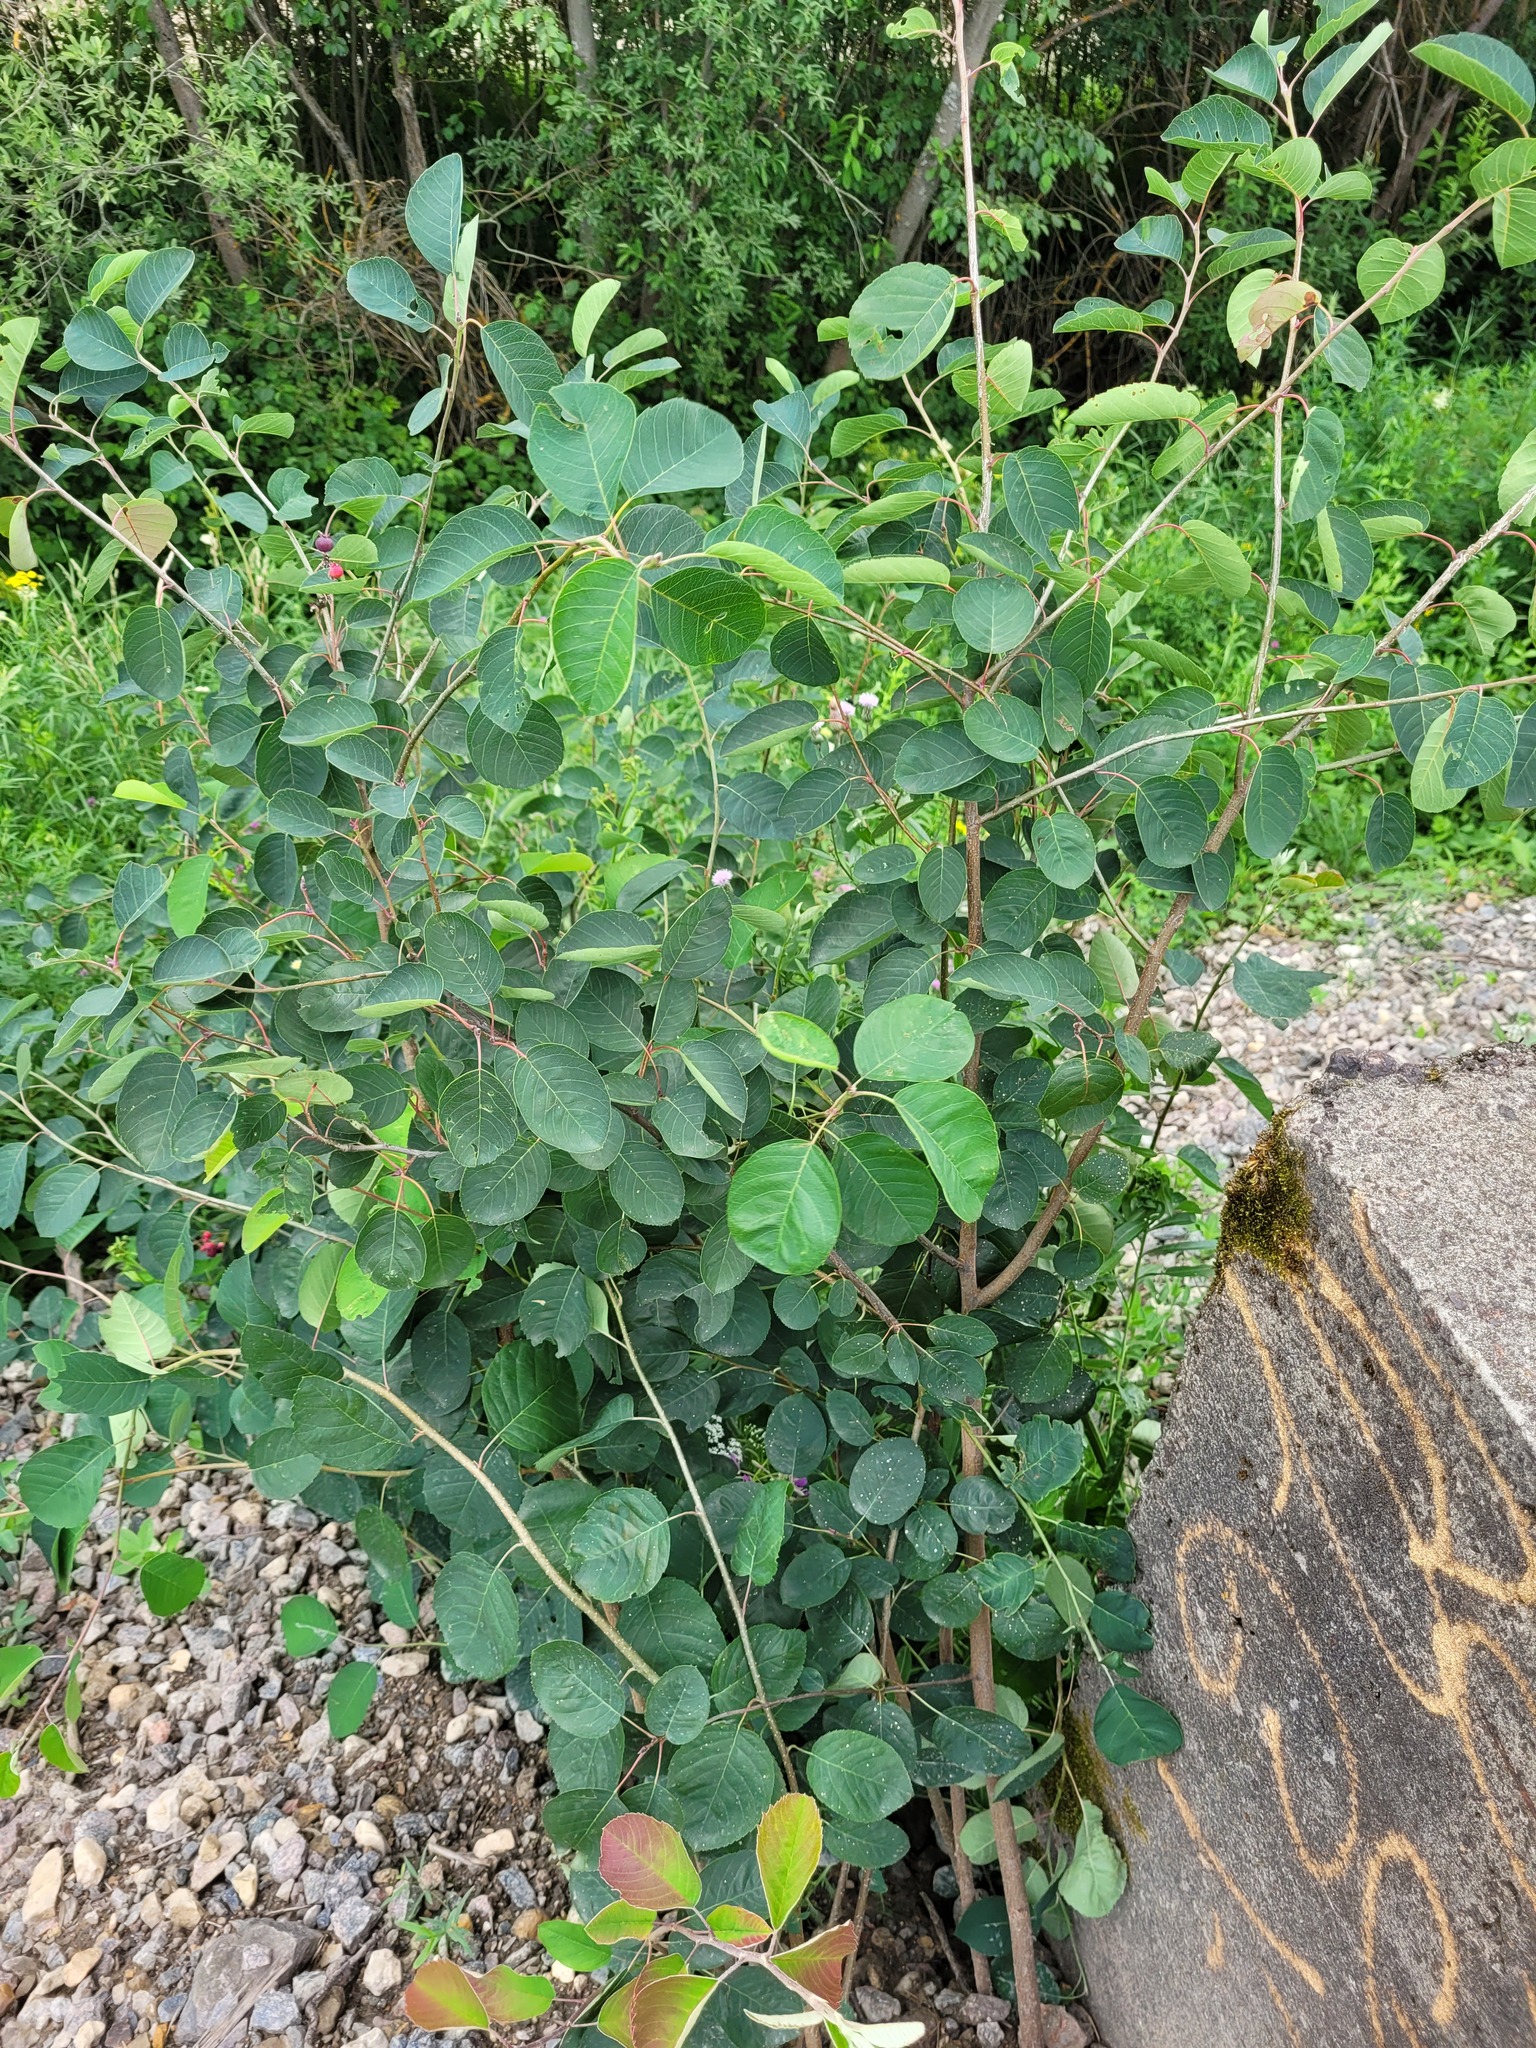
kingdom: Plantae
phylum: Tracheophyta
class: Magnoliopsida
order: Rosales
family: Rosaceae
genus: Amelanchier
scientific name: Amelanchier
